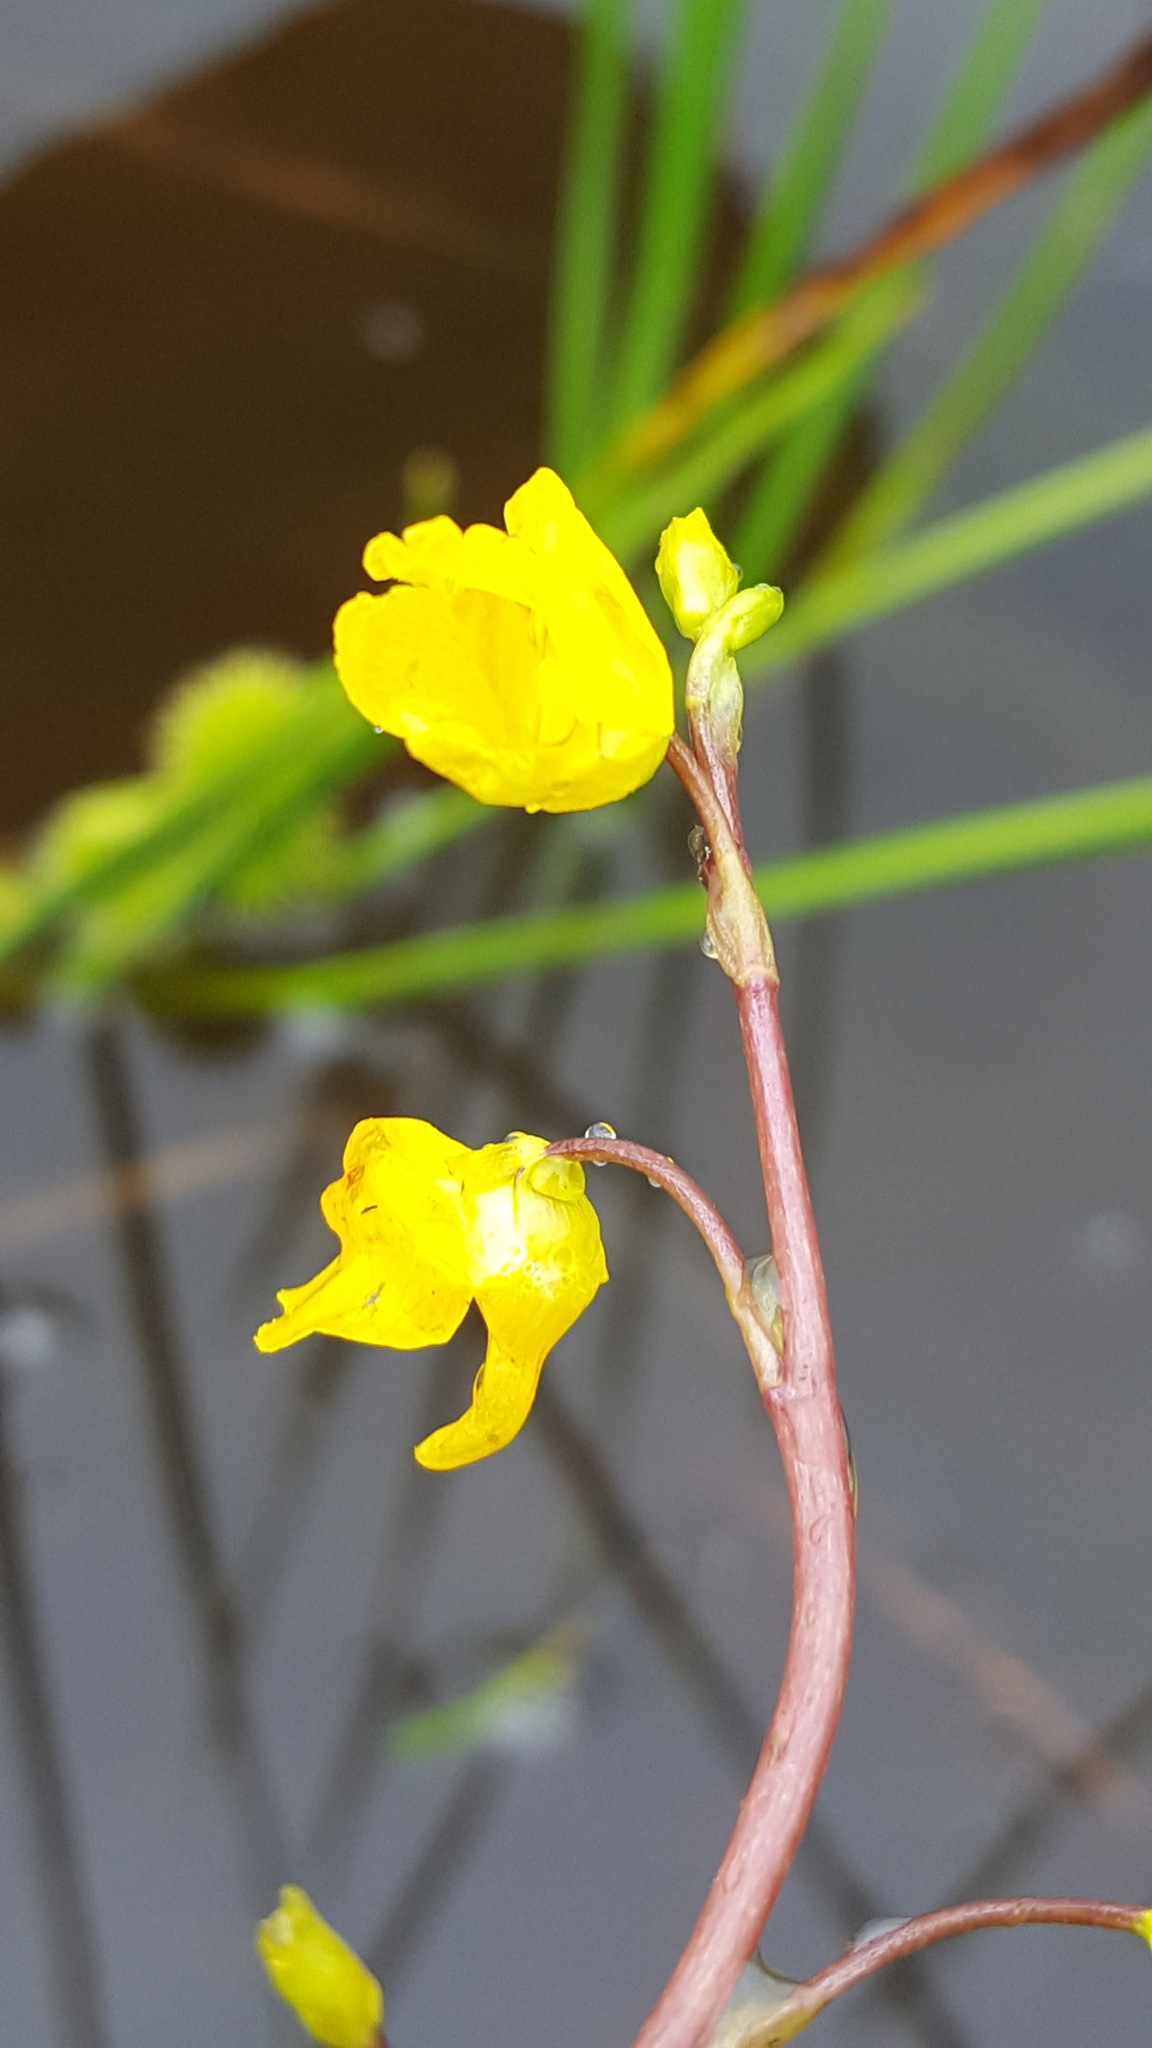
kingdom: Plantae
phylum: Tracheophyta
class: Magnoliopsida
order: Lamiales
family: Lentibulariaceae
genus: Utricularia
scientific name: Utricularia macrorhiza
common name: Common bladderwort
